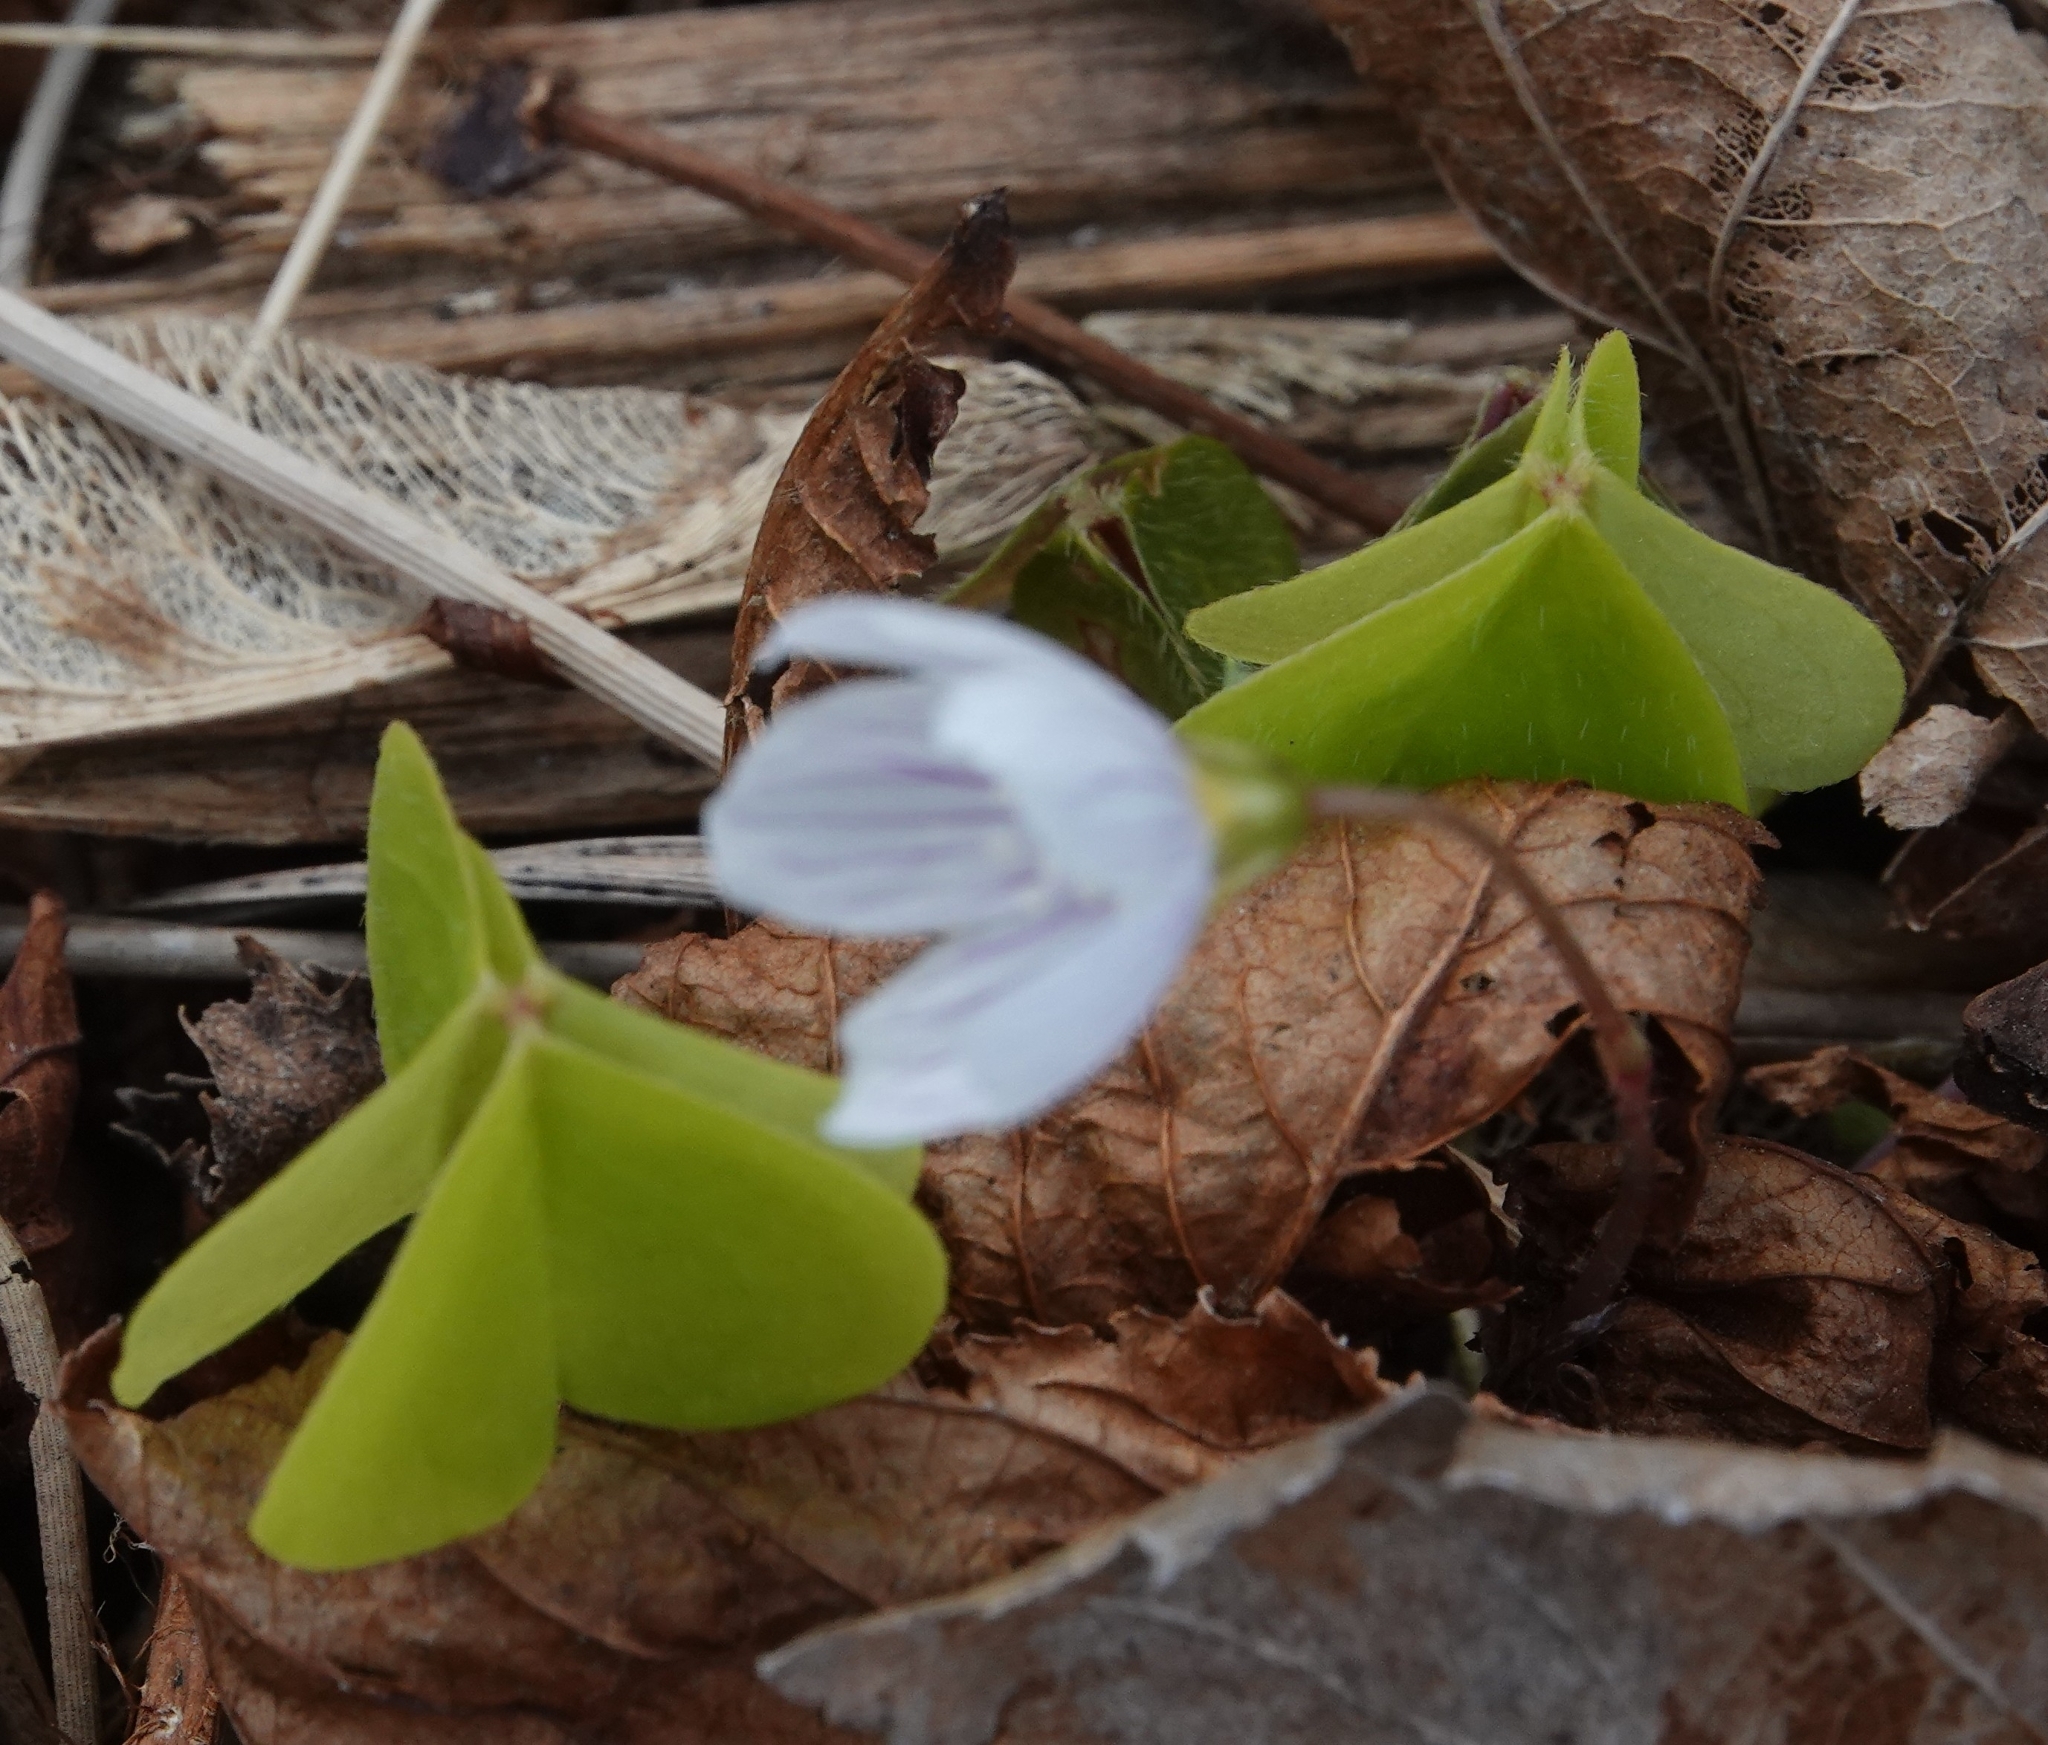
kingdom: Plantae
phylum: Tracheophyta
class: Magnoliopsida
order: Oxalidales
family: Oxalidaceae
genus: Oxalis
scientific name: Oxalis acetosella
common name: Wood-sorrel
